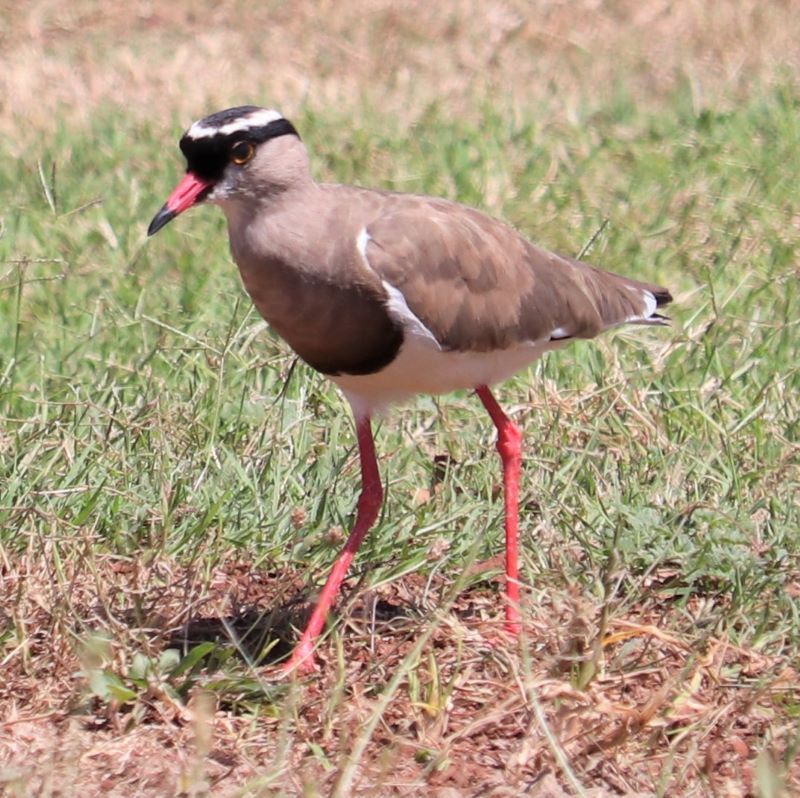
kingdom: Animalia
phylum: Chordata
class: Aves
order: Charadriiformes
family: Charadriidae
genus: Vanellus
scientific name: Vanellus coronatus
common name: Crowned lapwing
